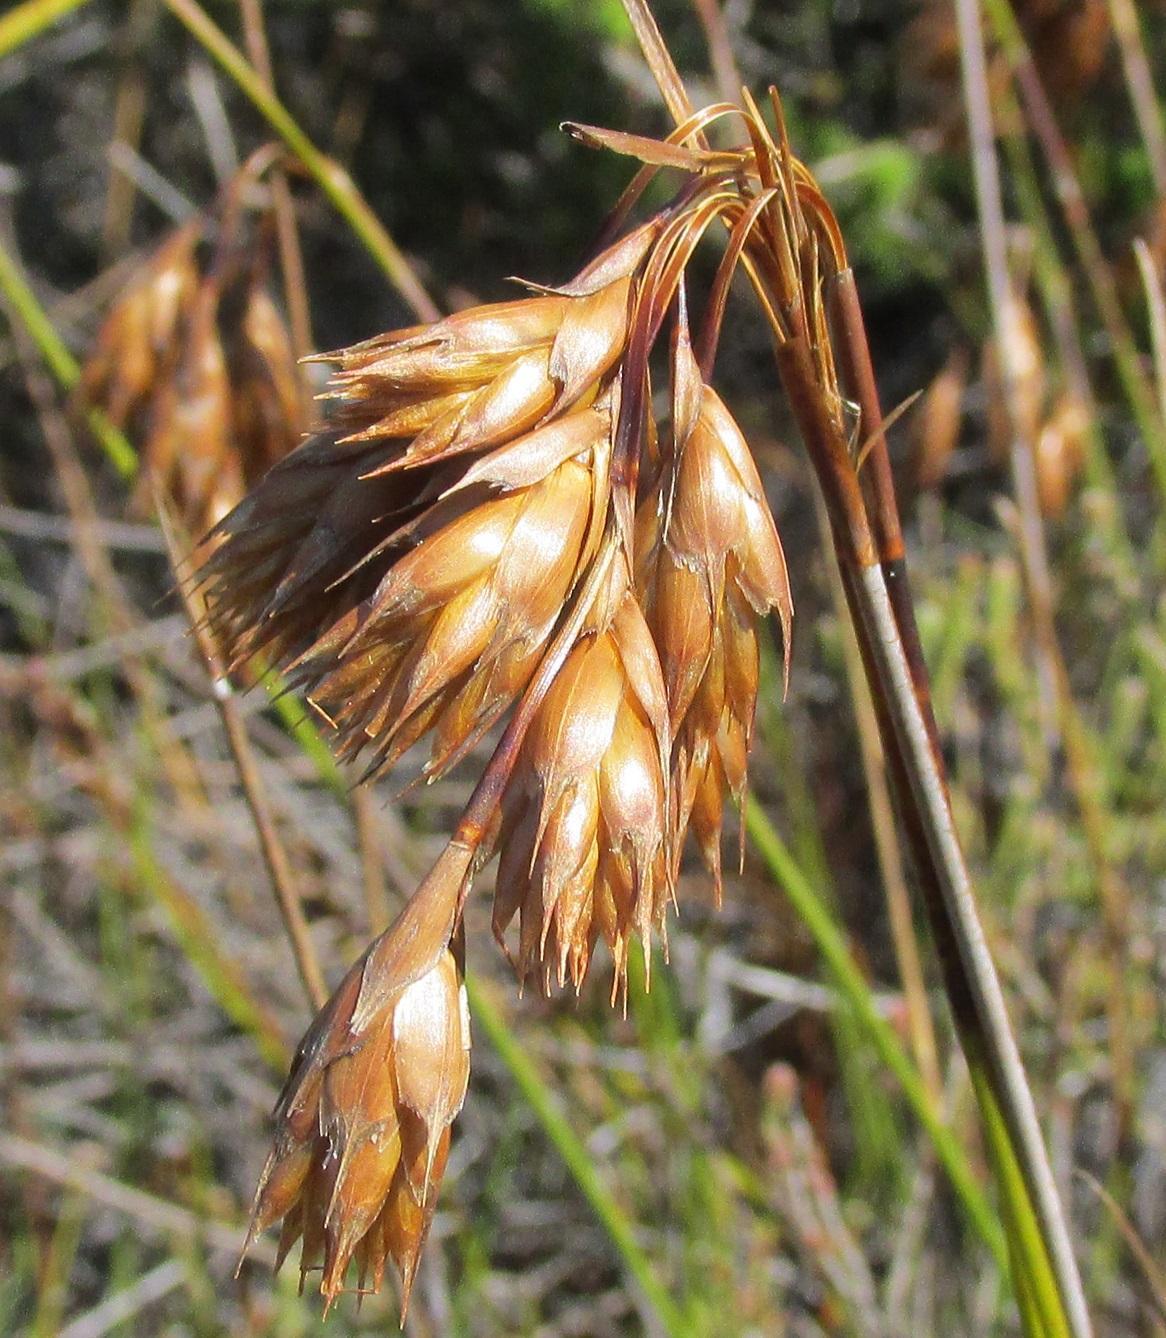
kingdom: Plantae
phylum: Tracheophyta
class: Liliopsida
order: Poales
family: Restionaceae
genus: Thamnochortus
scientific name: Thamnochortus pulcher
